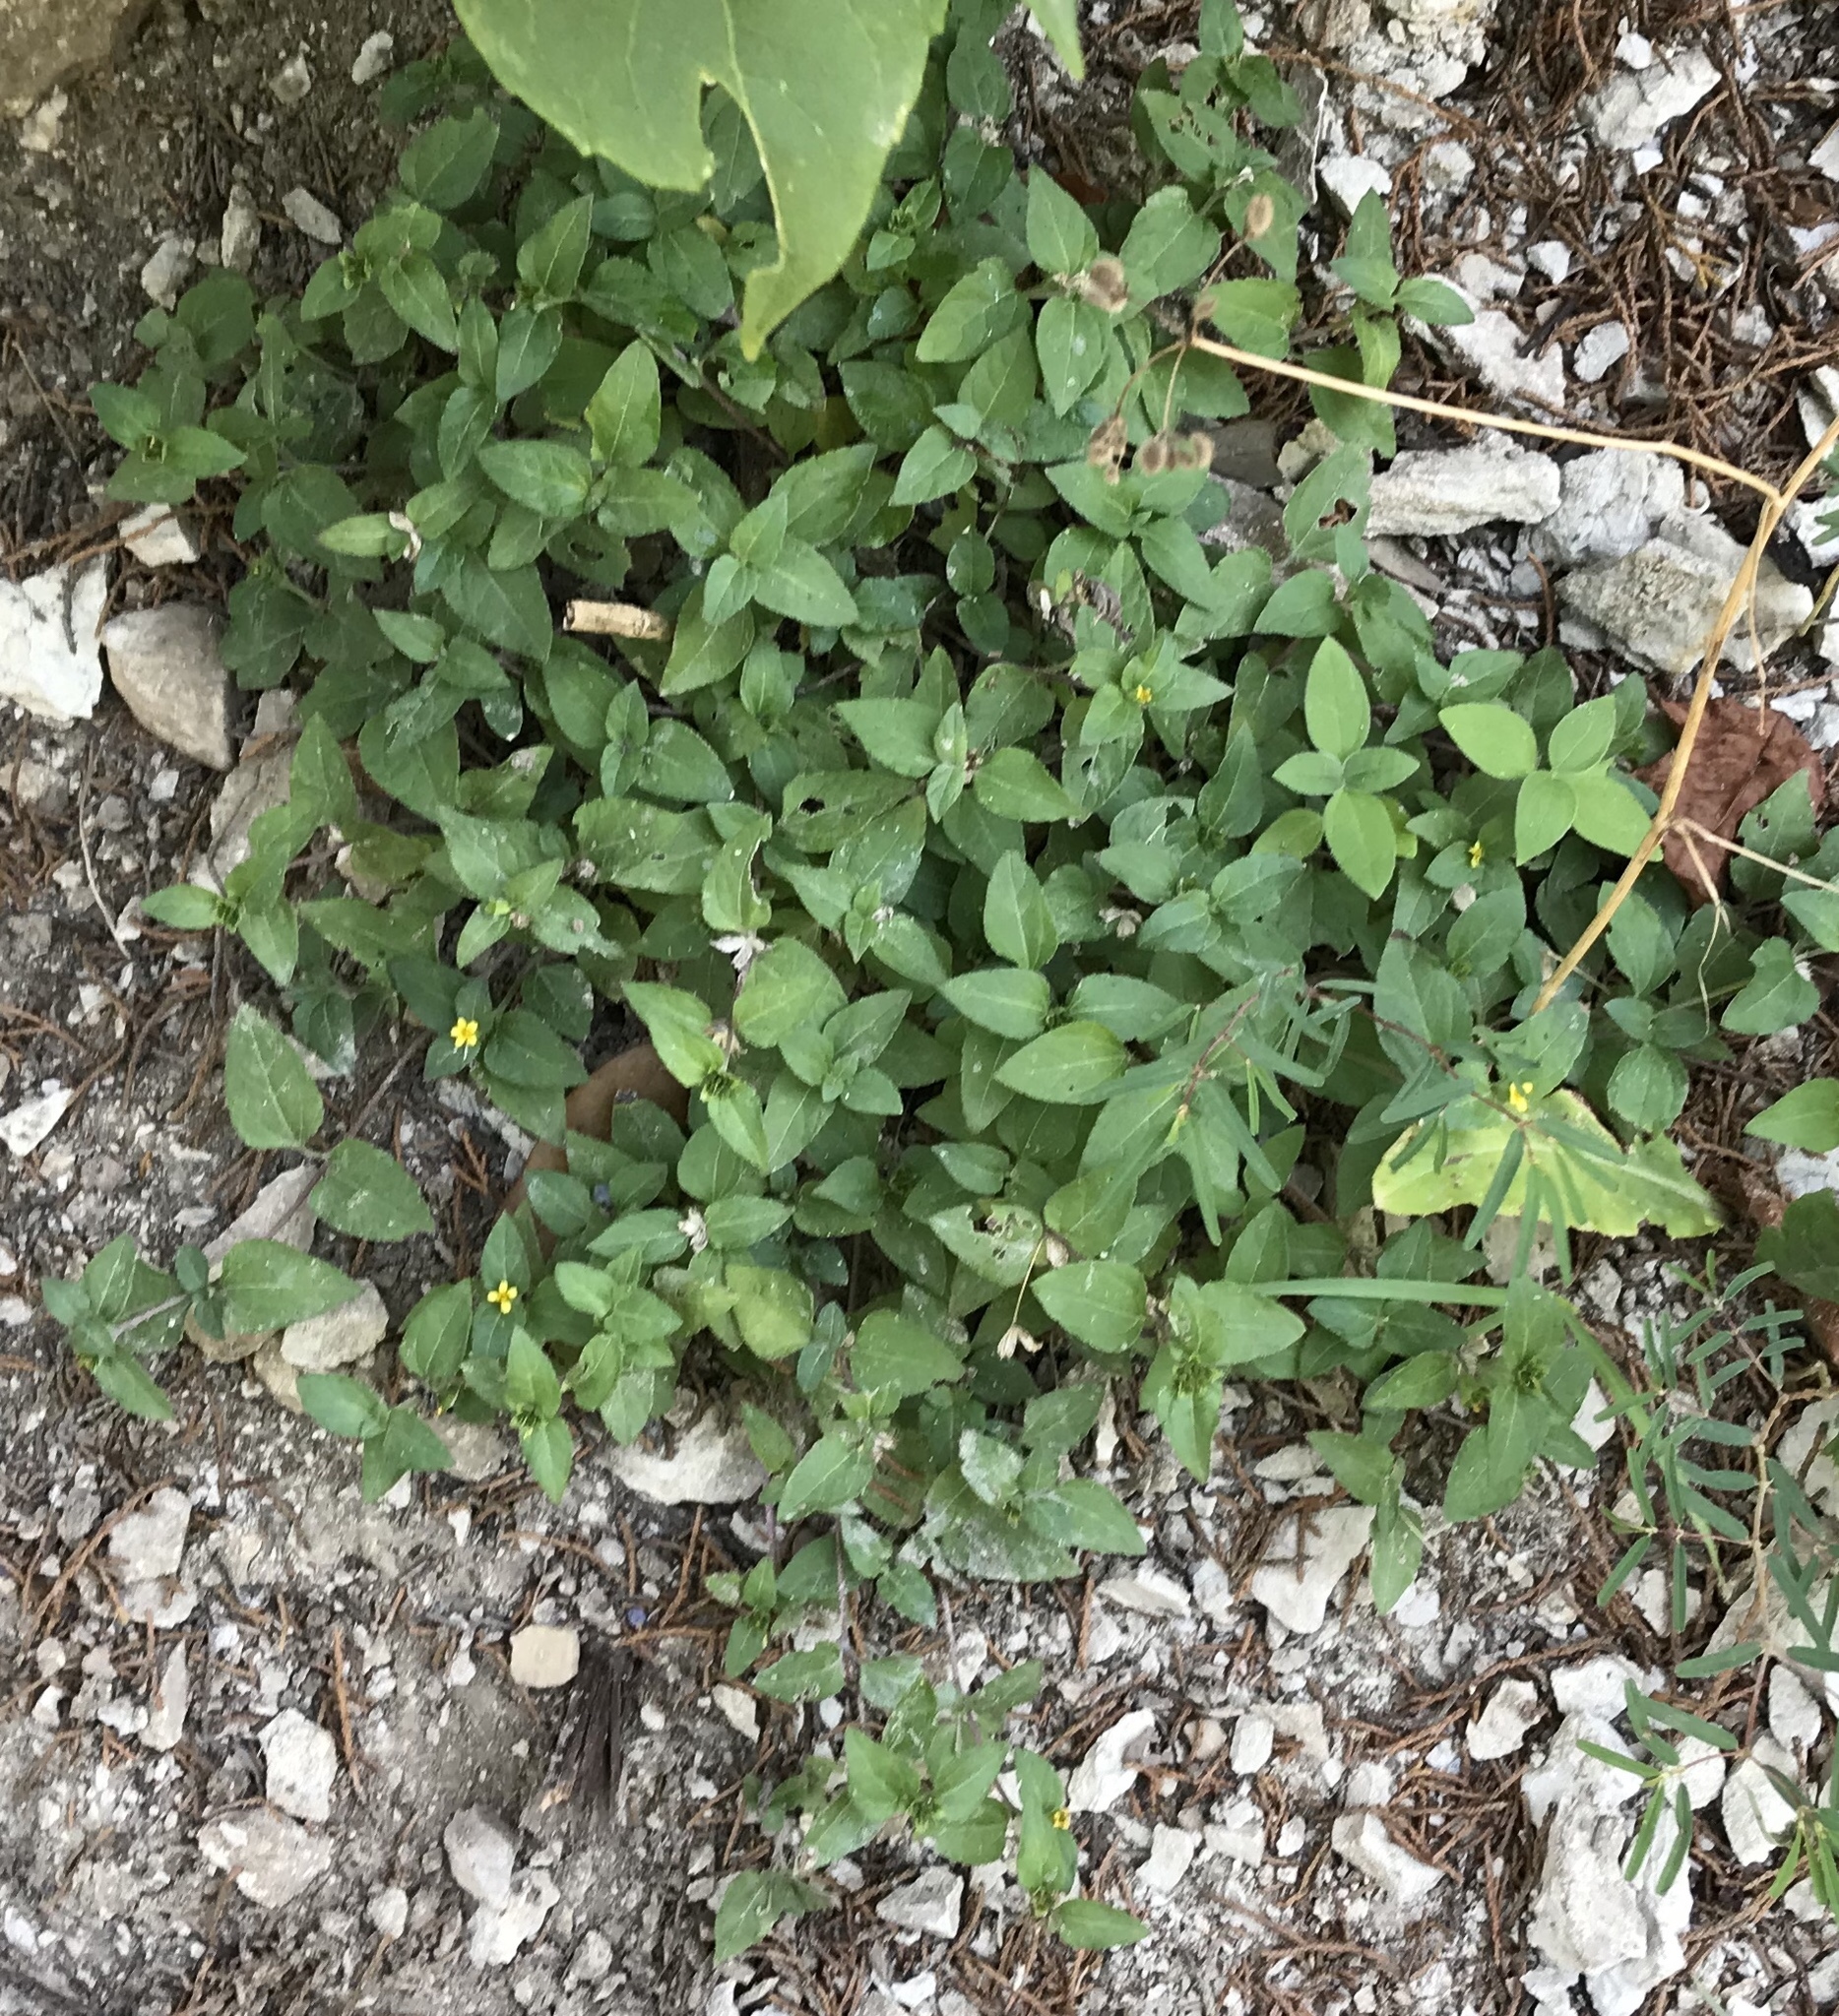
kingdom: Plantae
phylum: Tracheophyta
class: Magnoliopsida
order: Asterales
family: Asteraceae
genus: Calyptocarpus
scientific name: Calyptocarpus vialis
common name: Straggler daisy
